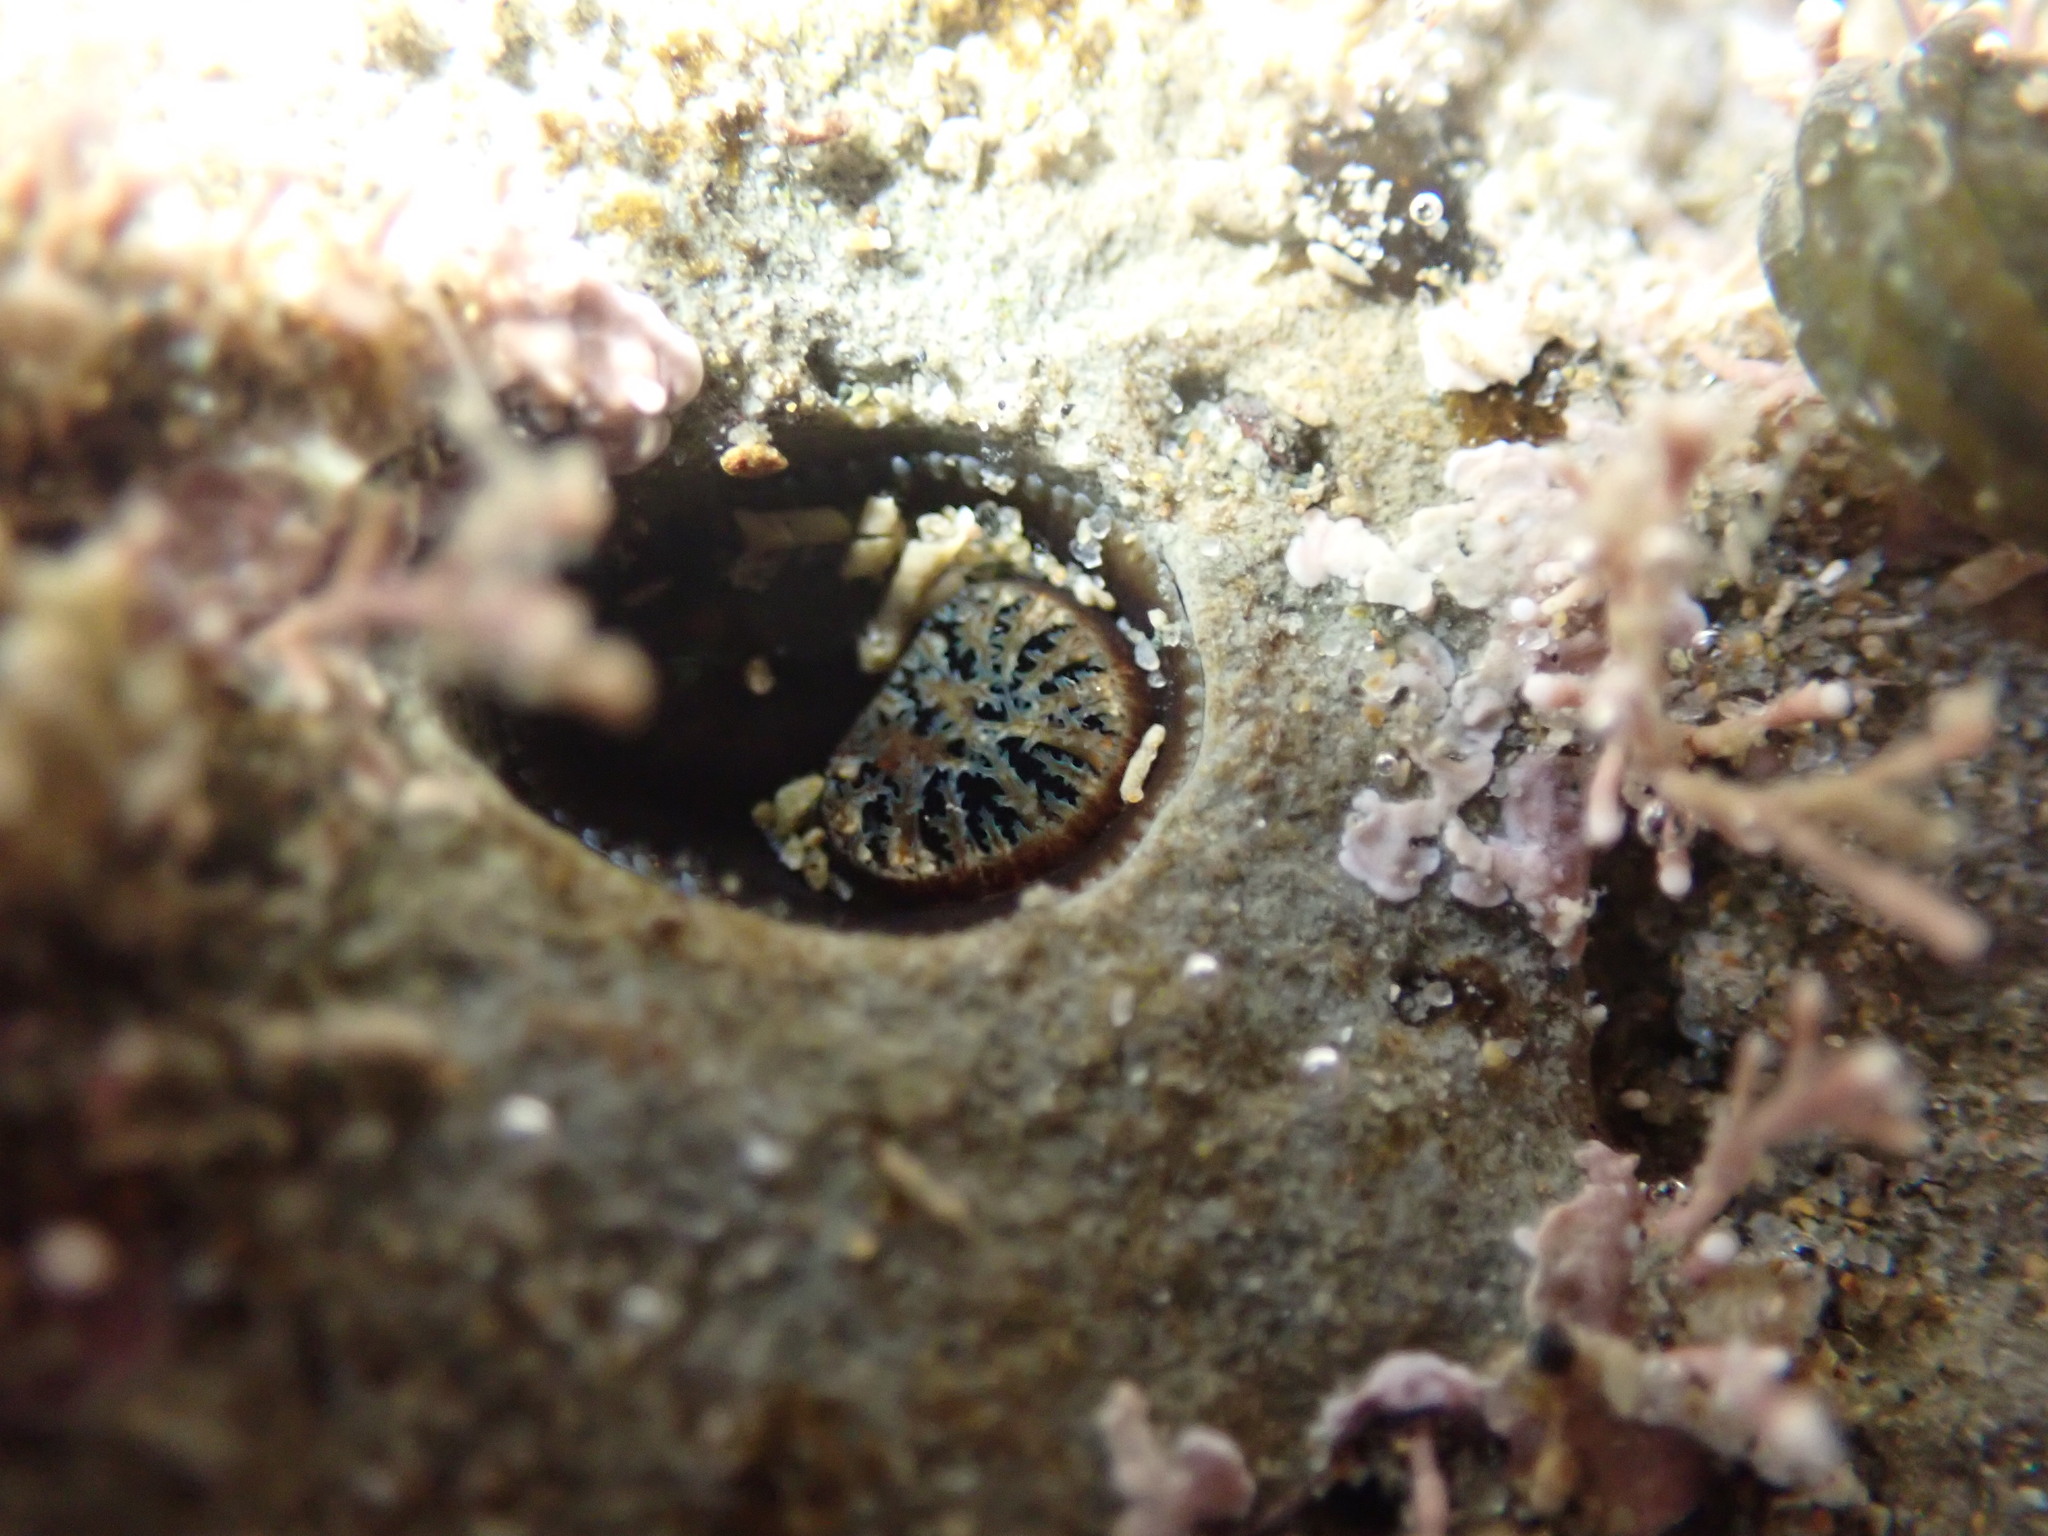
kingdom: Animalia
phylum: Mollusca
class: Bivalvia
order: Myida
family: Pholadidae
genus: Pholadidea
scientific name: Pholadidea tridens
